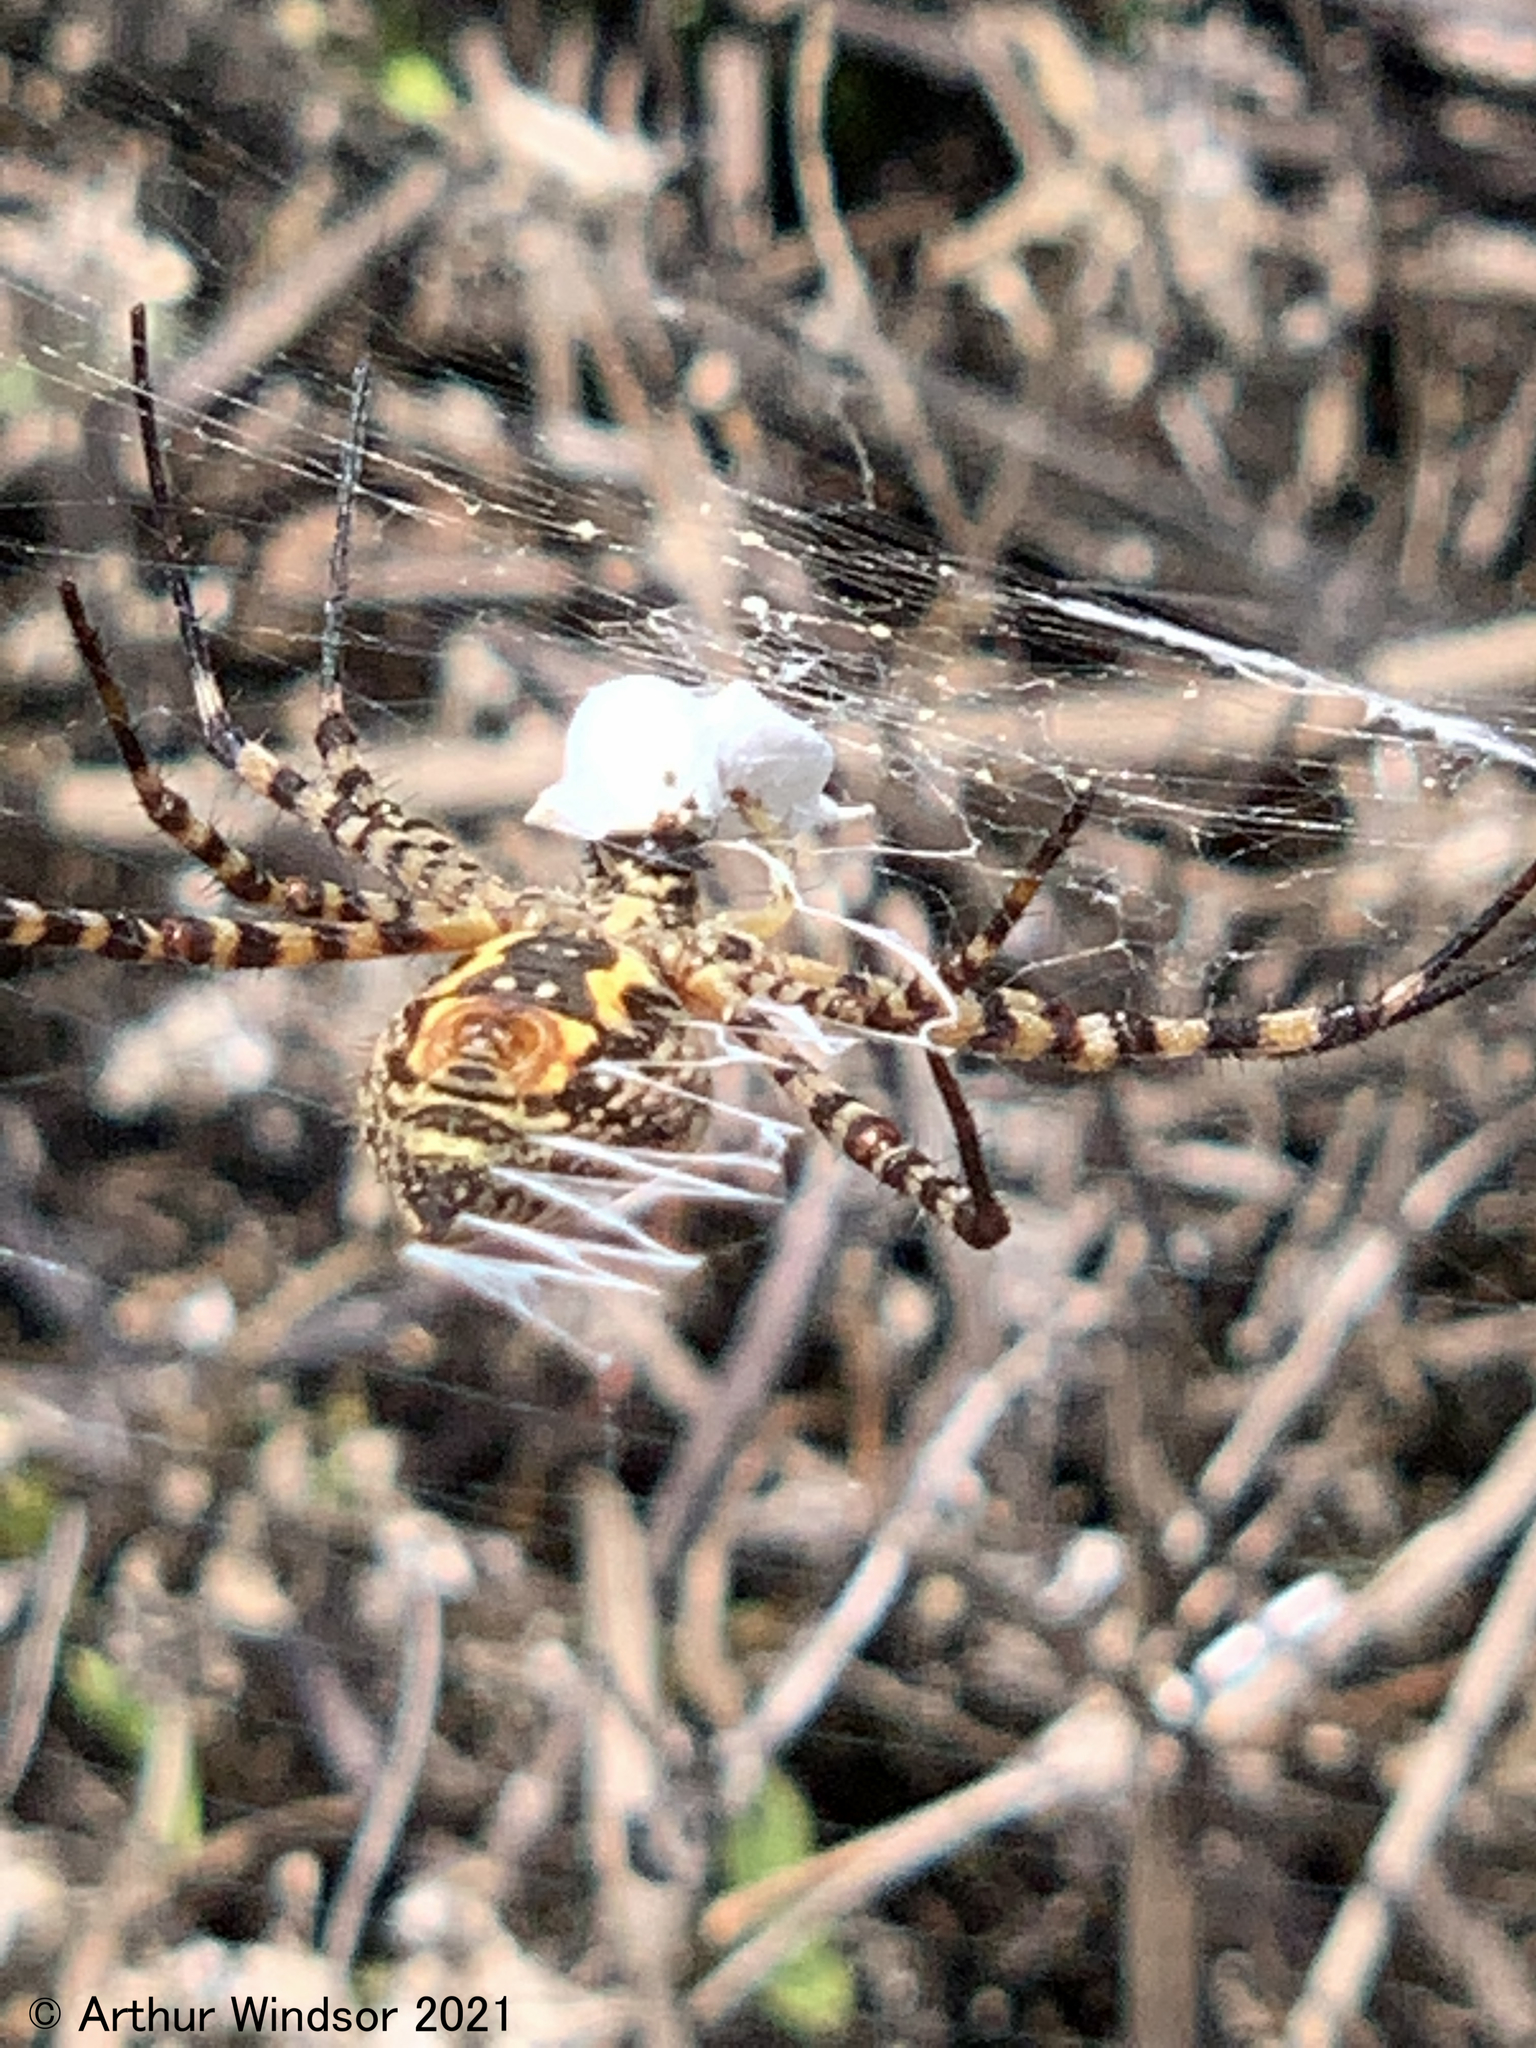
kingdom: Animalia
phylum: Arthropoda
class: Arachnida
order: Araneae
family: Araneidae
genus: Argiope
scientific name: Argiope trifasciata
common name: Banded garden spider
